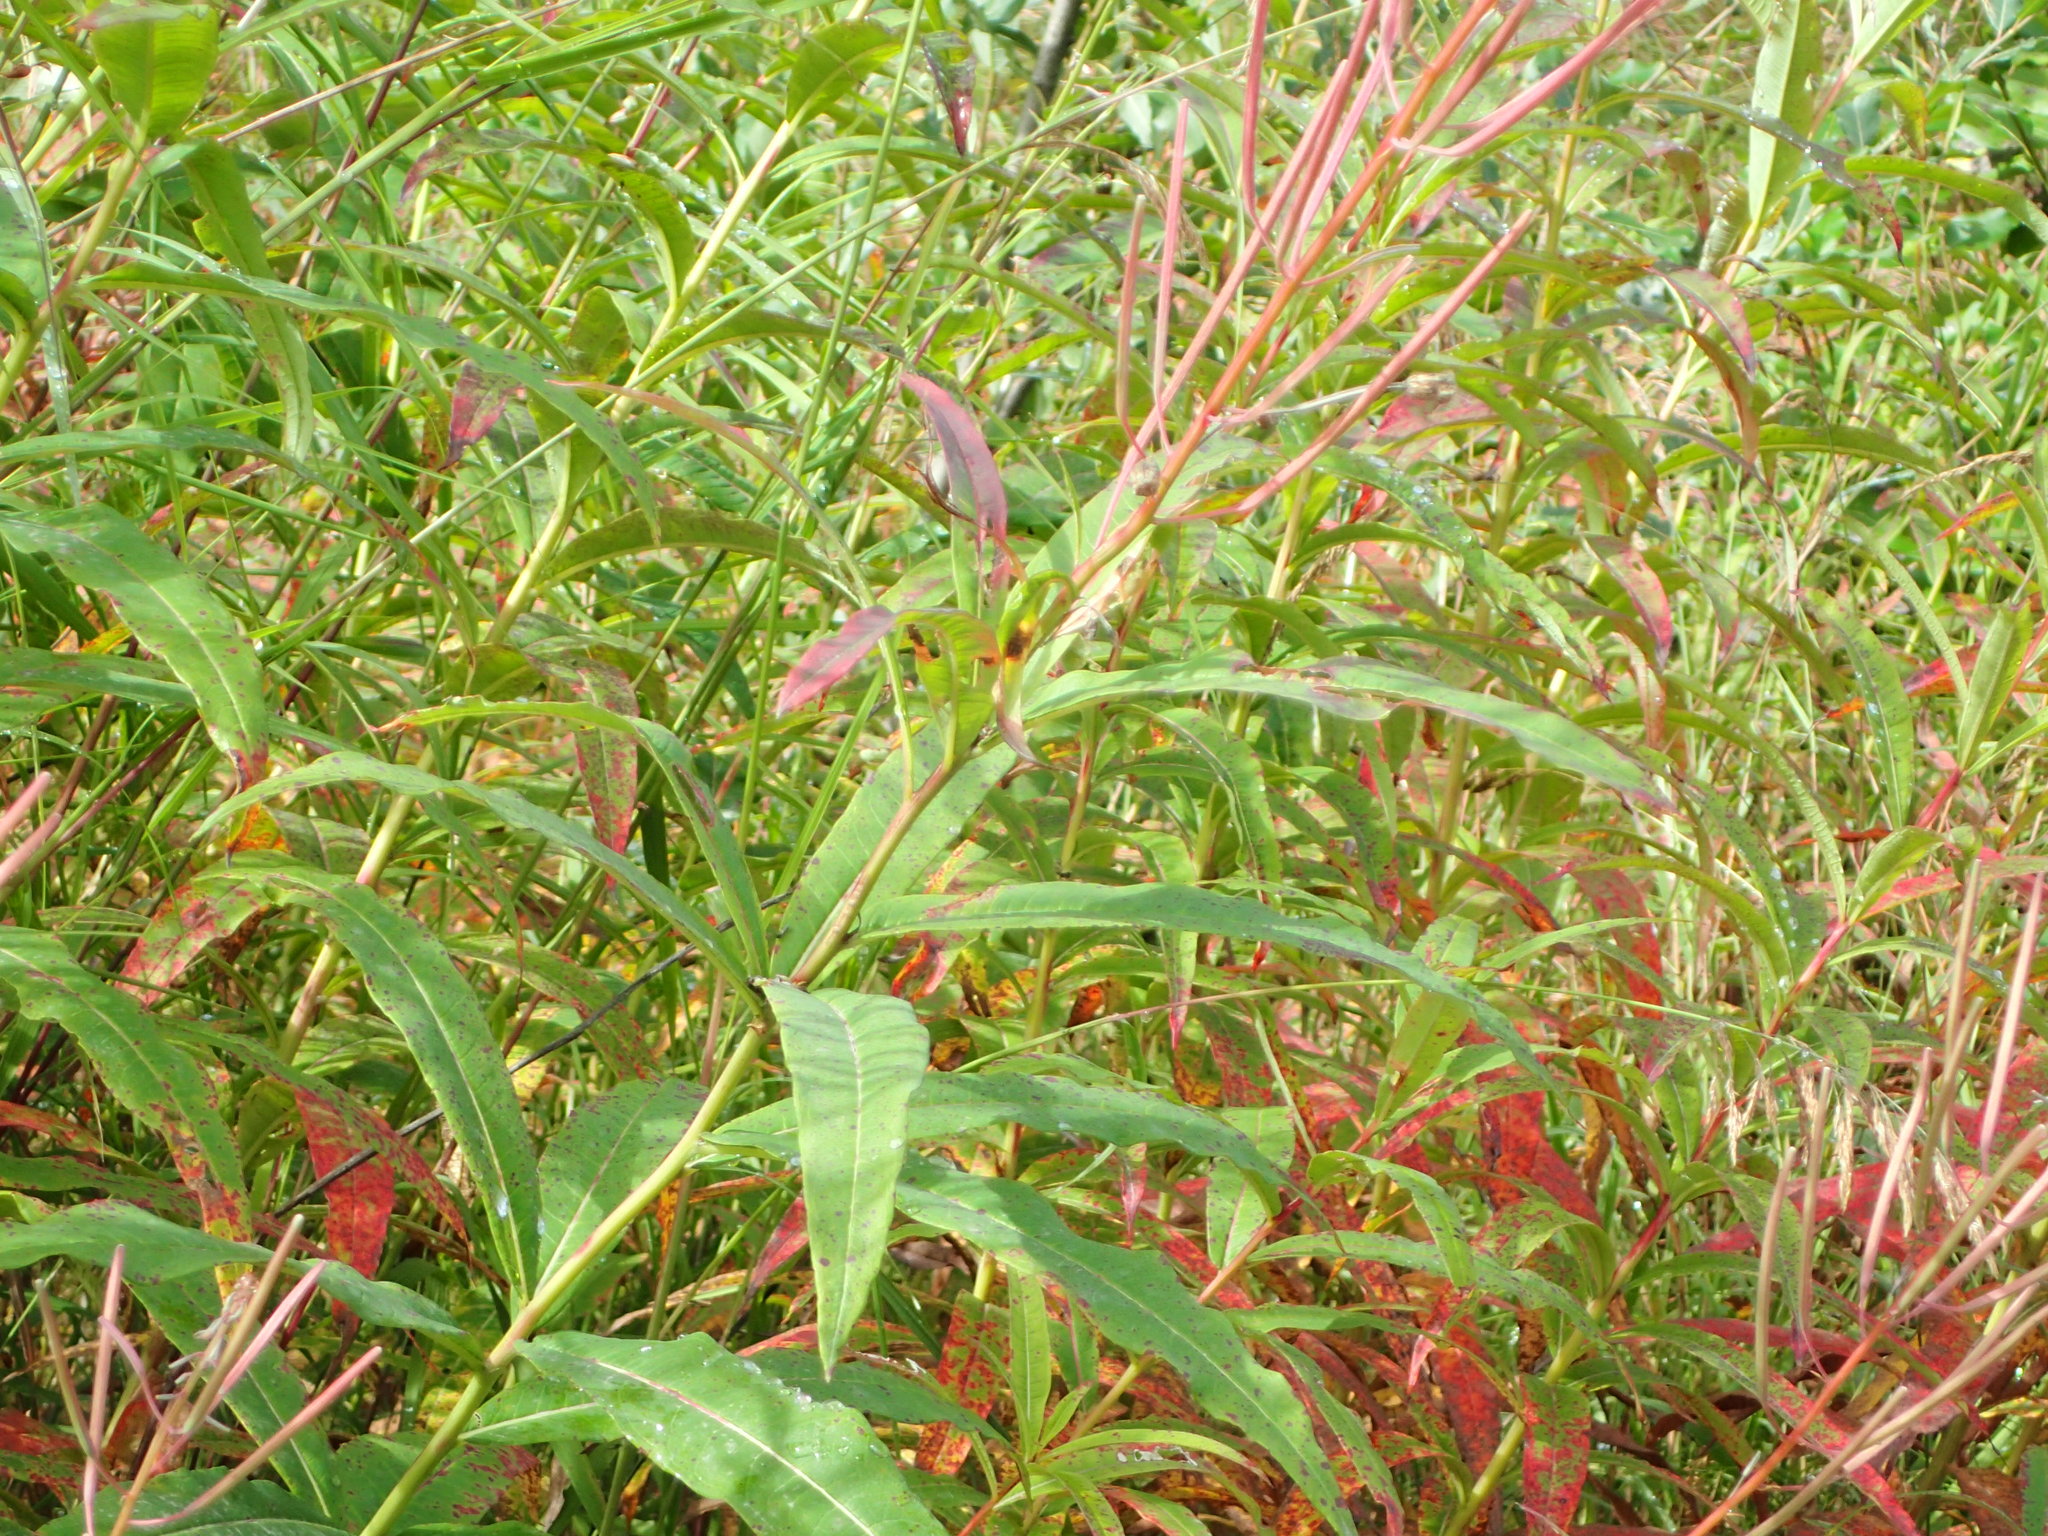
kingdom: Plantae
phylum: Tracheophyta
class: Magnoliopsida
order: Myrtales
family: Onagraceae
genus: Chamaenerion
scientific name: Chamaenerion angustifolium
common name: Fireweed
